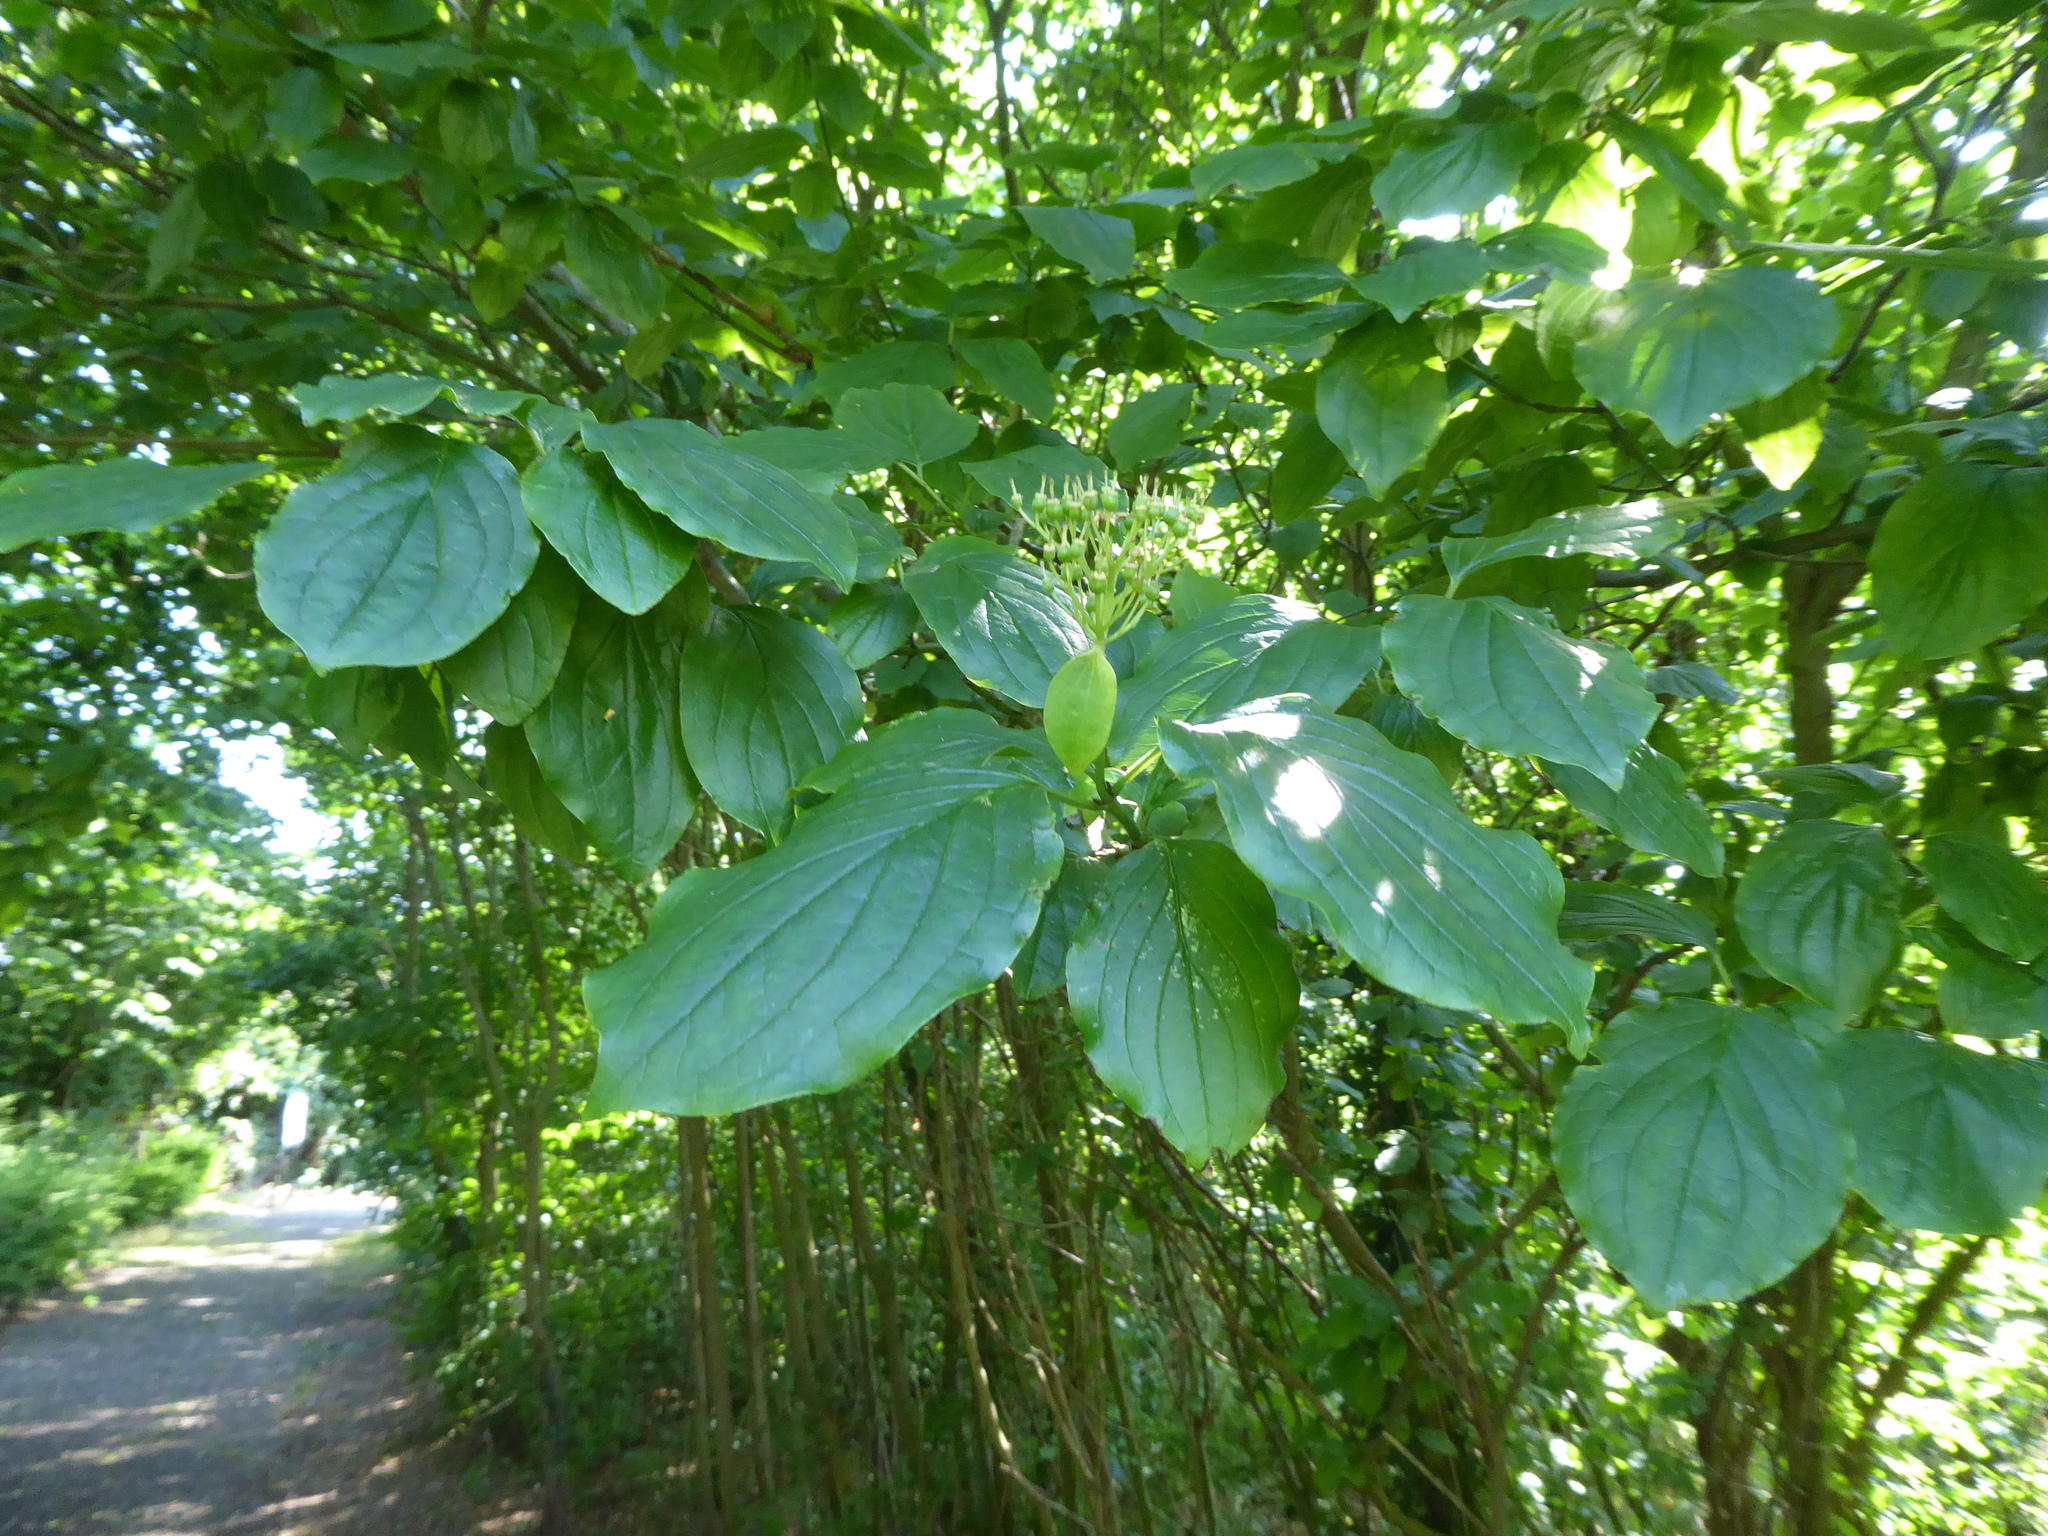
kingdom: Plantae
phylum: Tracheophyta
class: Magnoliopsida
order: Cornales
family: Cornaceae
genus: Cornus
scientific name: Cornus sanguinea
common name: Dogwood
